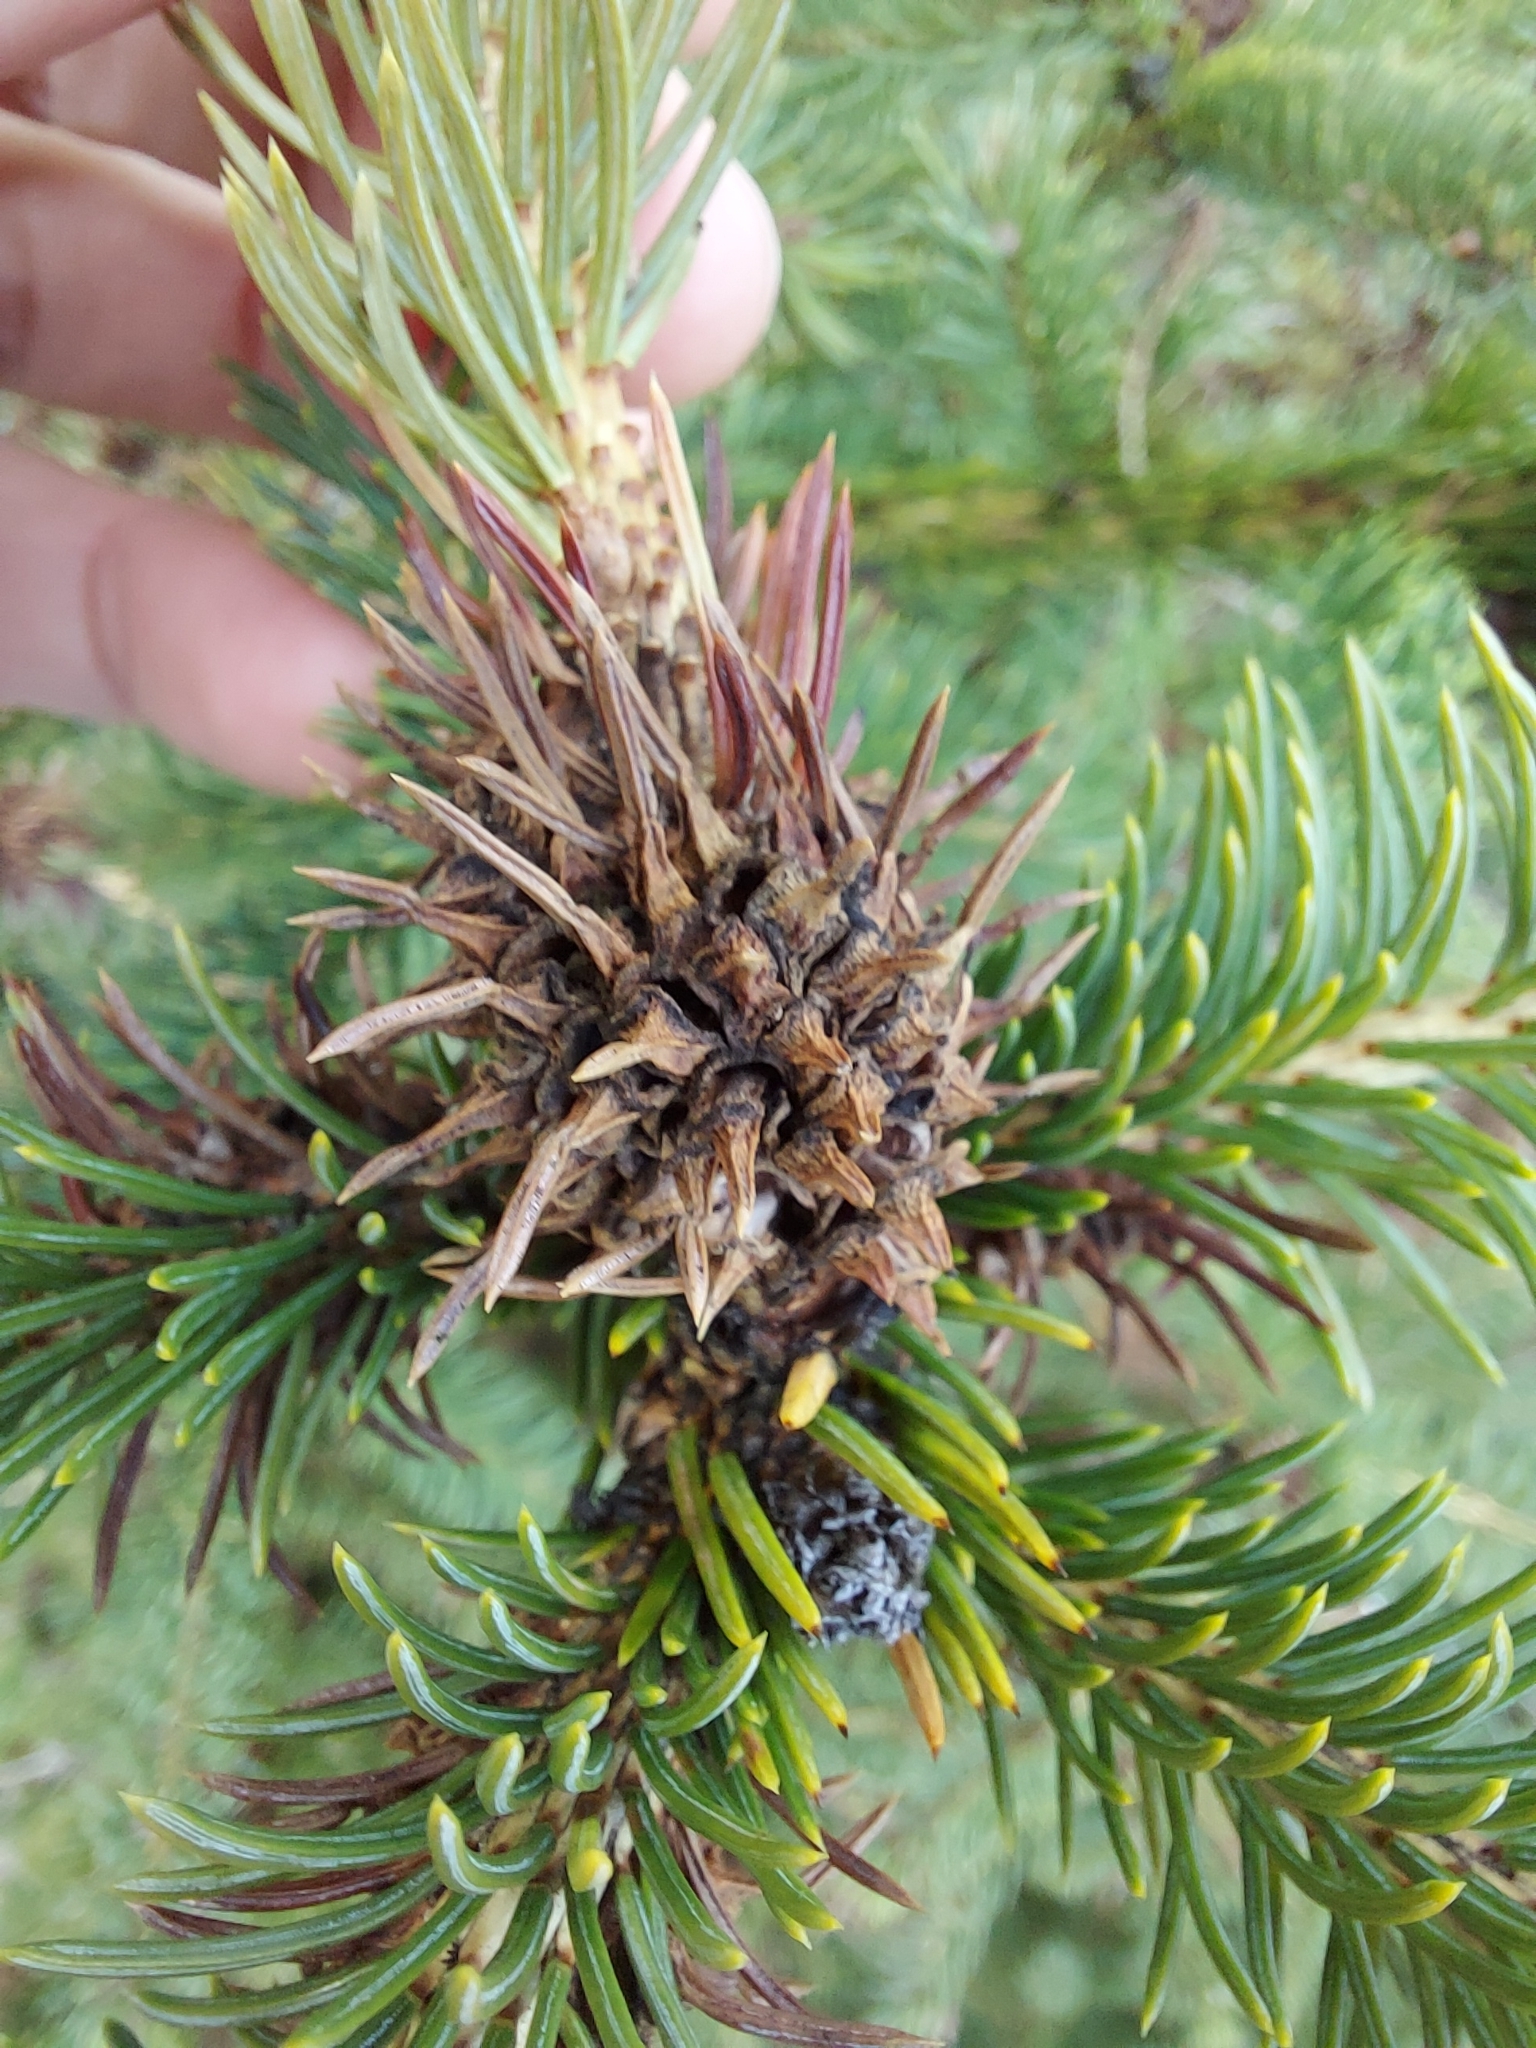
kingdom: Animalia
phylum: Arthropoda
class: Insecta
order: Hemiptera
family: Adelgidae
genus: Adelges
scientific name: Adelges abietis
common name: Eastern spruce gall adelgid
